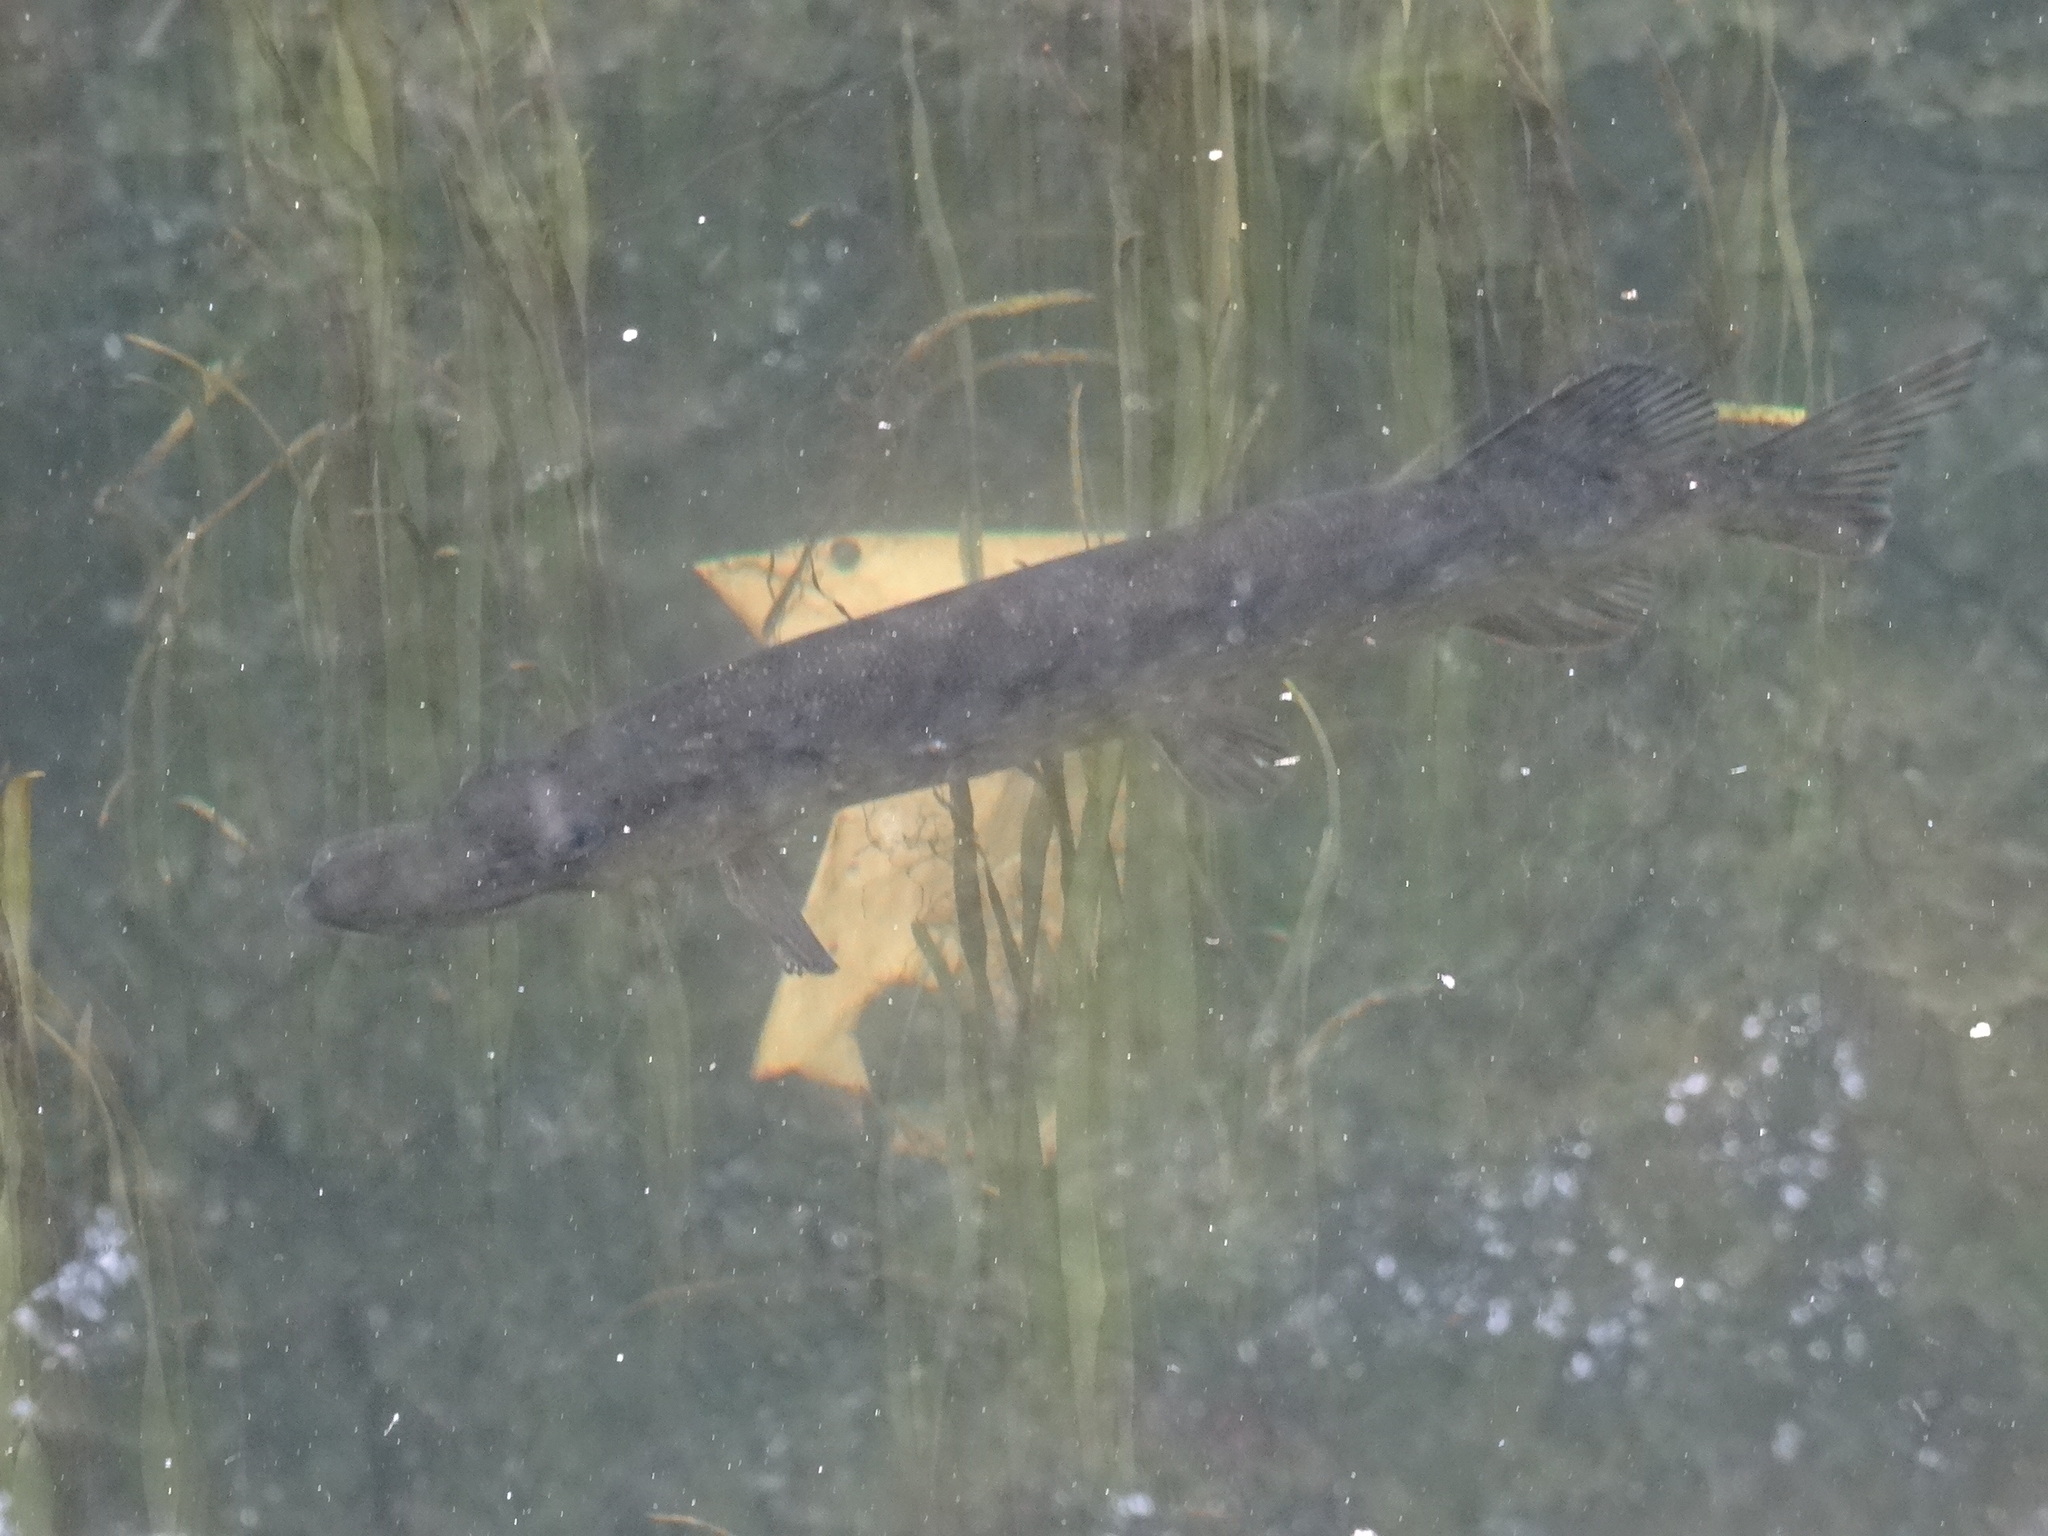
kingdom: Animalia
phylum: Chordata
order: Esociformes
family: Esocidae
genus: Esox
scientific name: Esox lucius
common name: Northern pike
